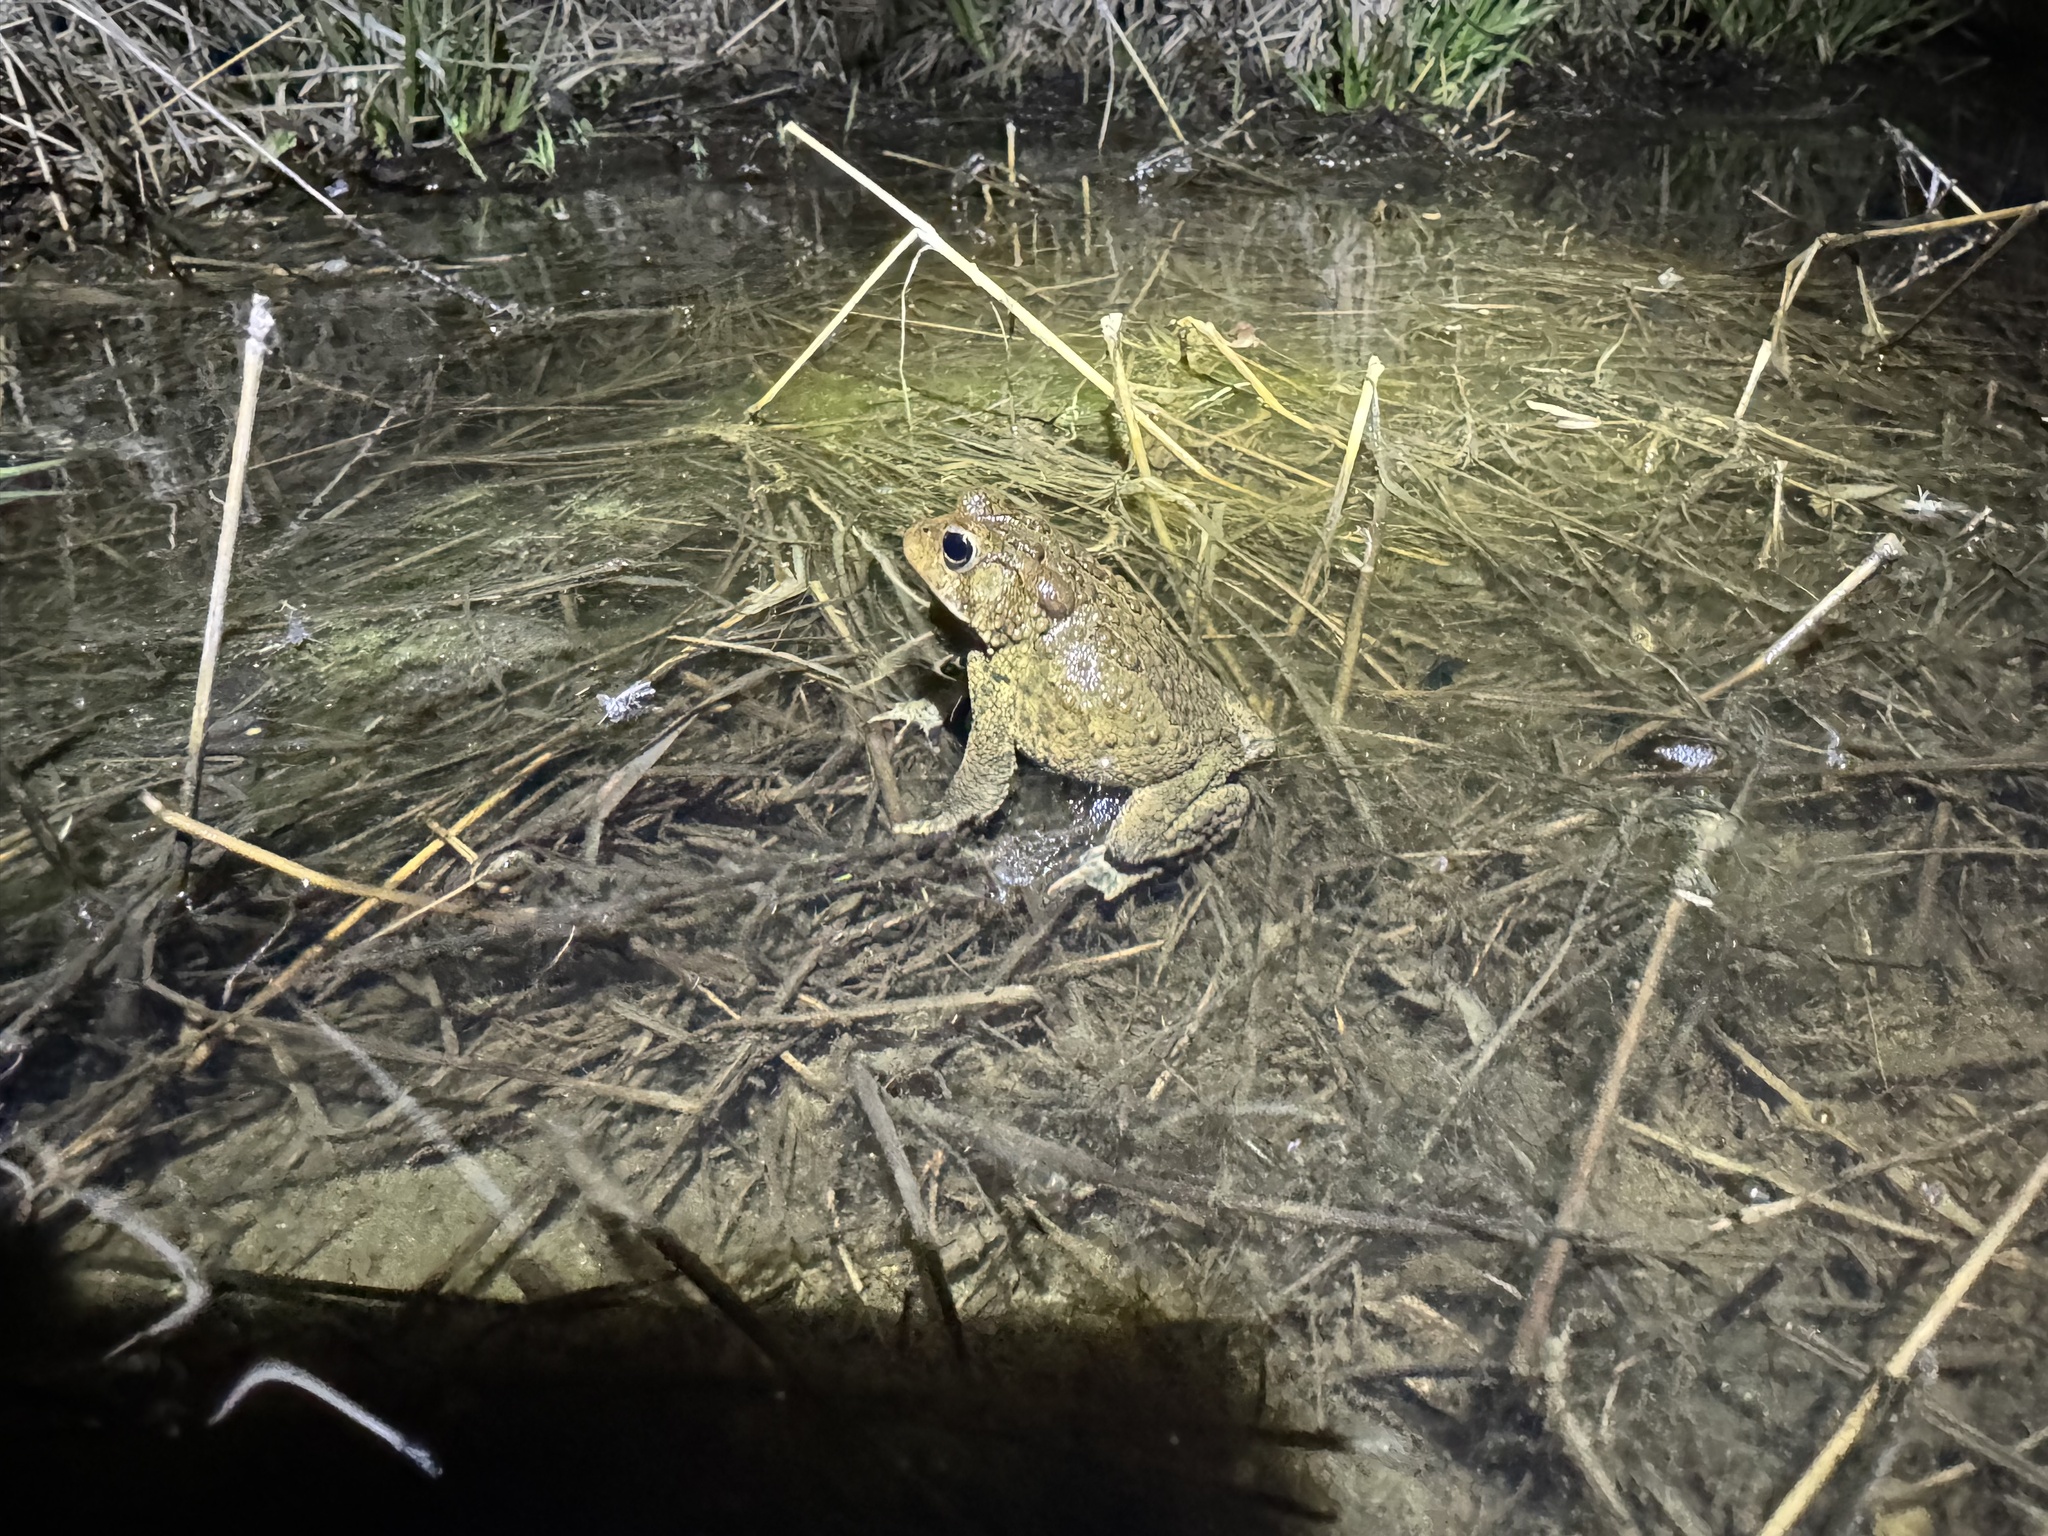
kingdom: Animalia
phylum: Chordata
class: Amphibia
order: Anura
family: Bufonidae
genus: Anaxyrus
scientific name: Anaxyrus americanus
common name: American toad
